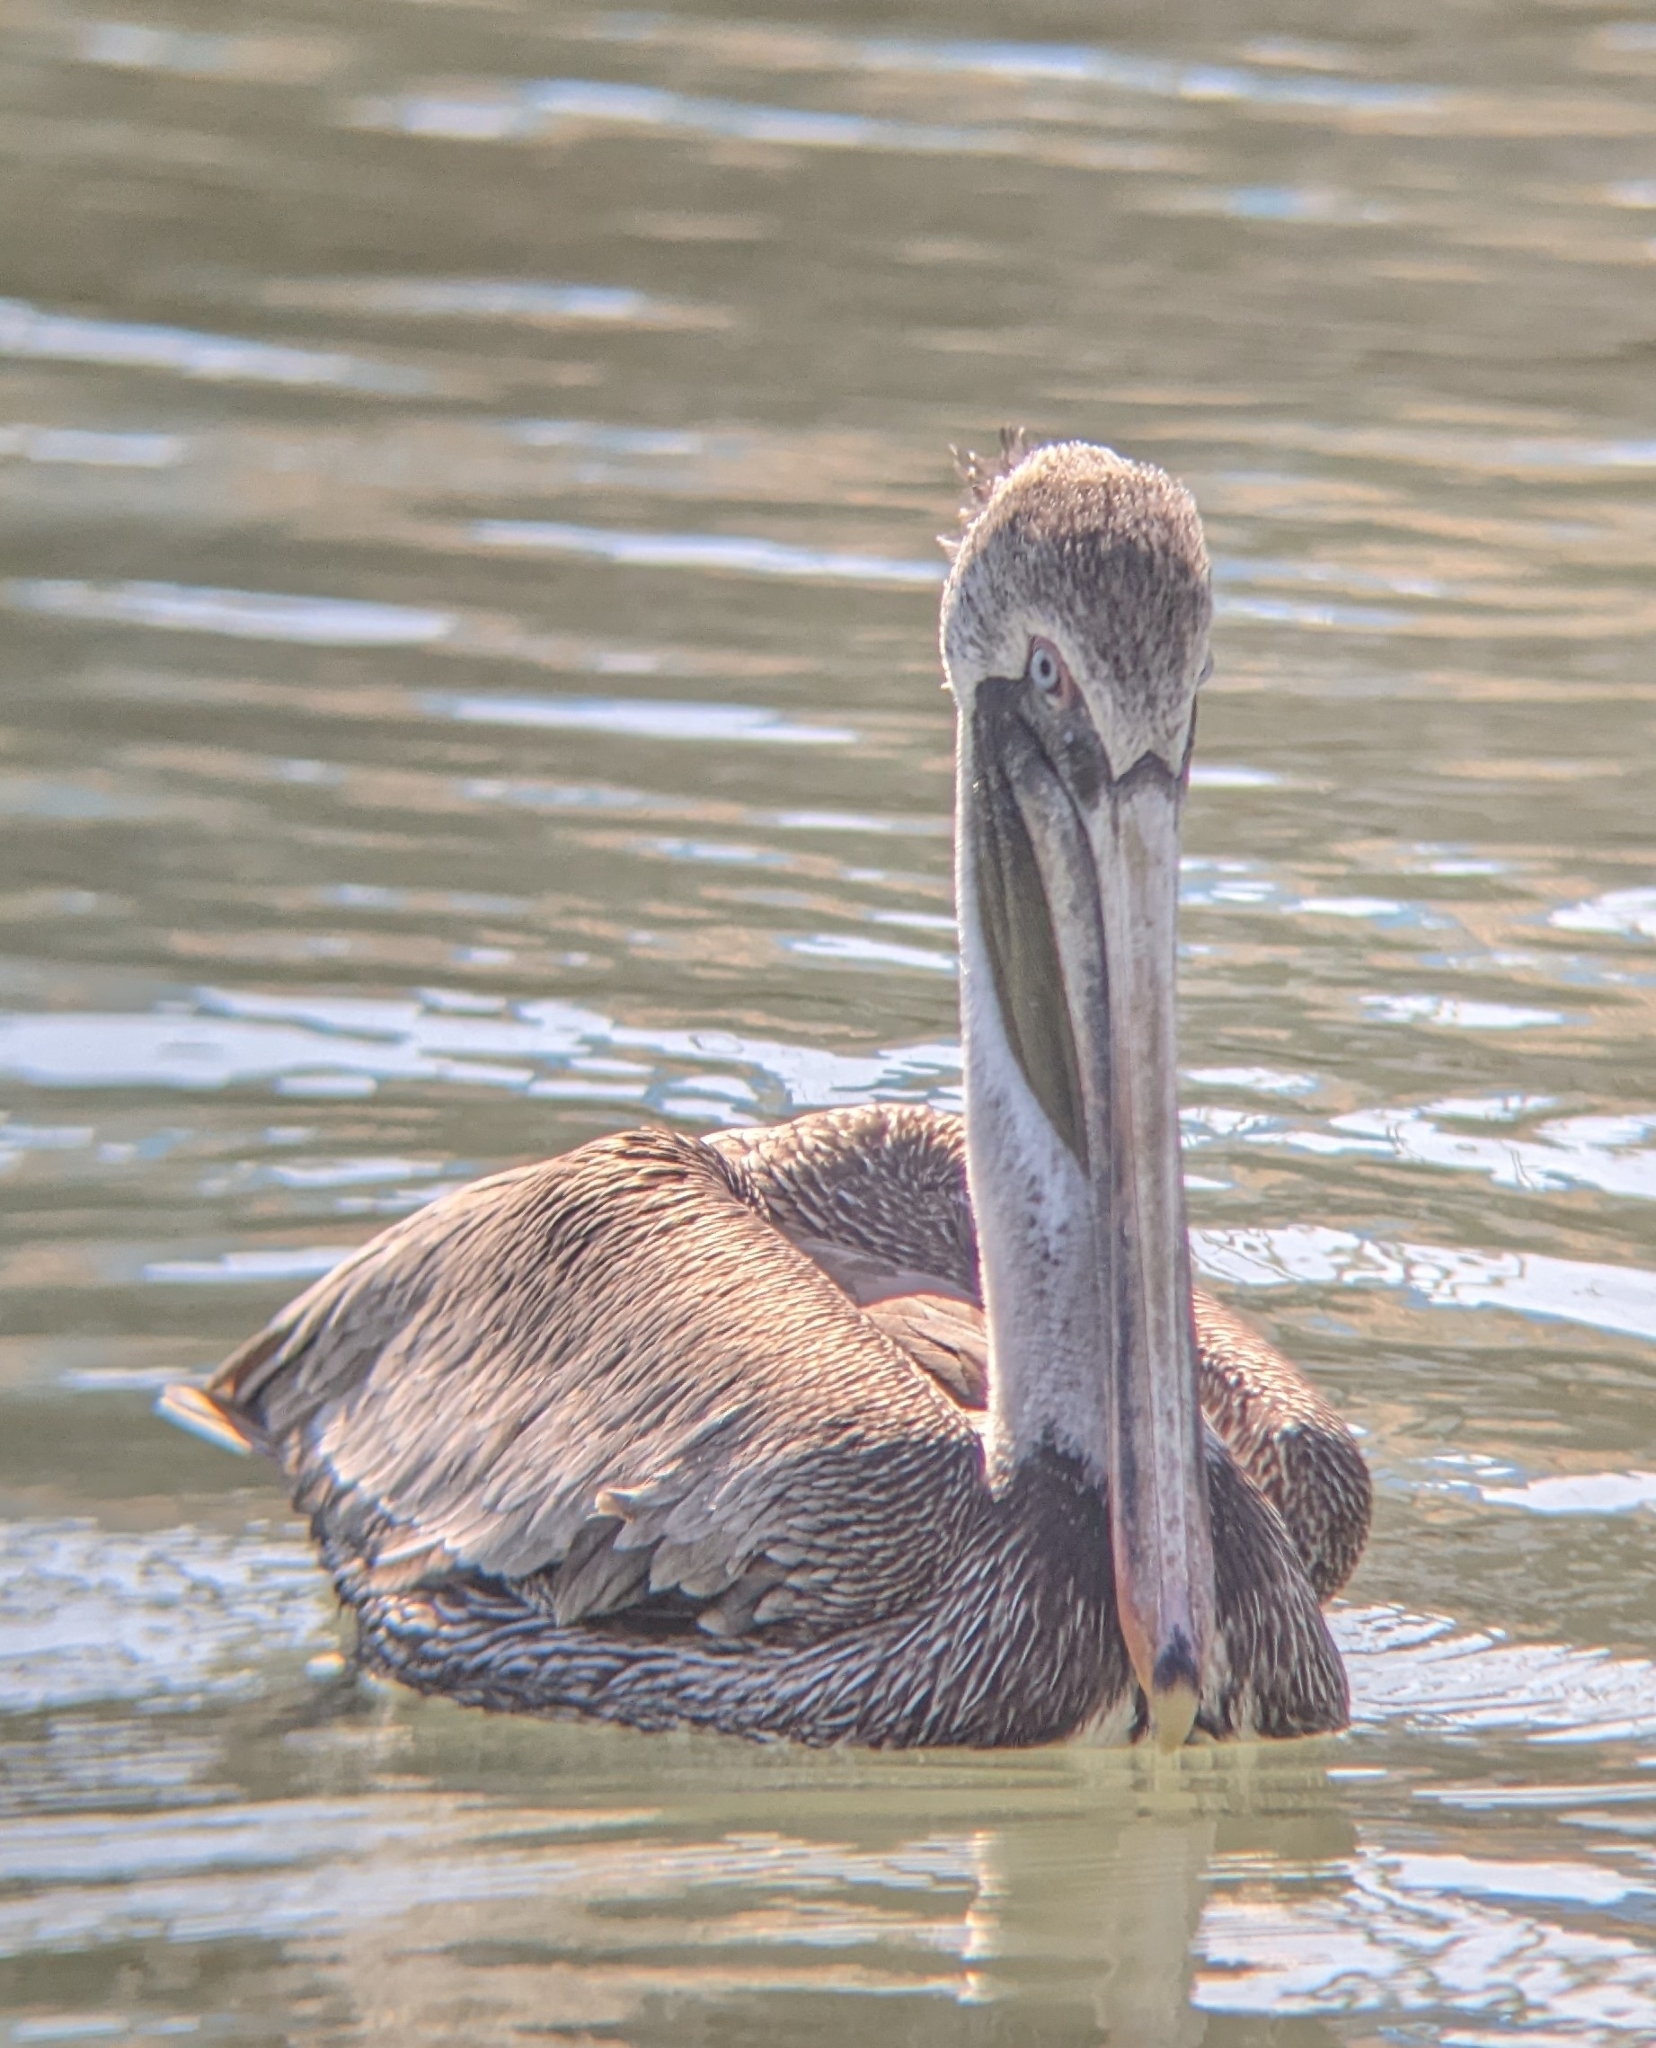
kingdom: Animalia
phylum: Chordata
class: Aves
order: Pelecaniformes
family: Pelecanidae
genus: Pelecanus
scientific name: Pelecanus occidentalis
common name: Brown pelican
